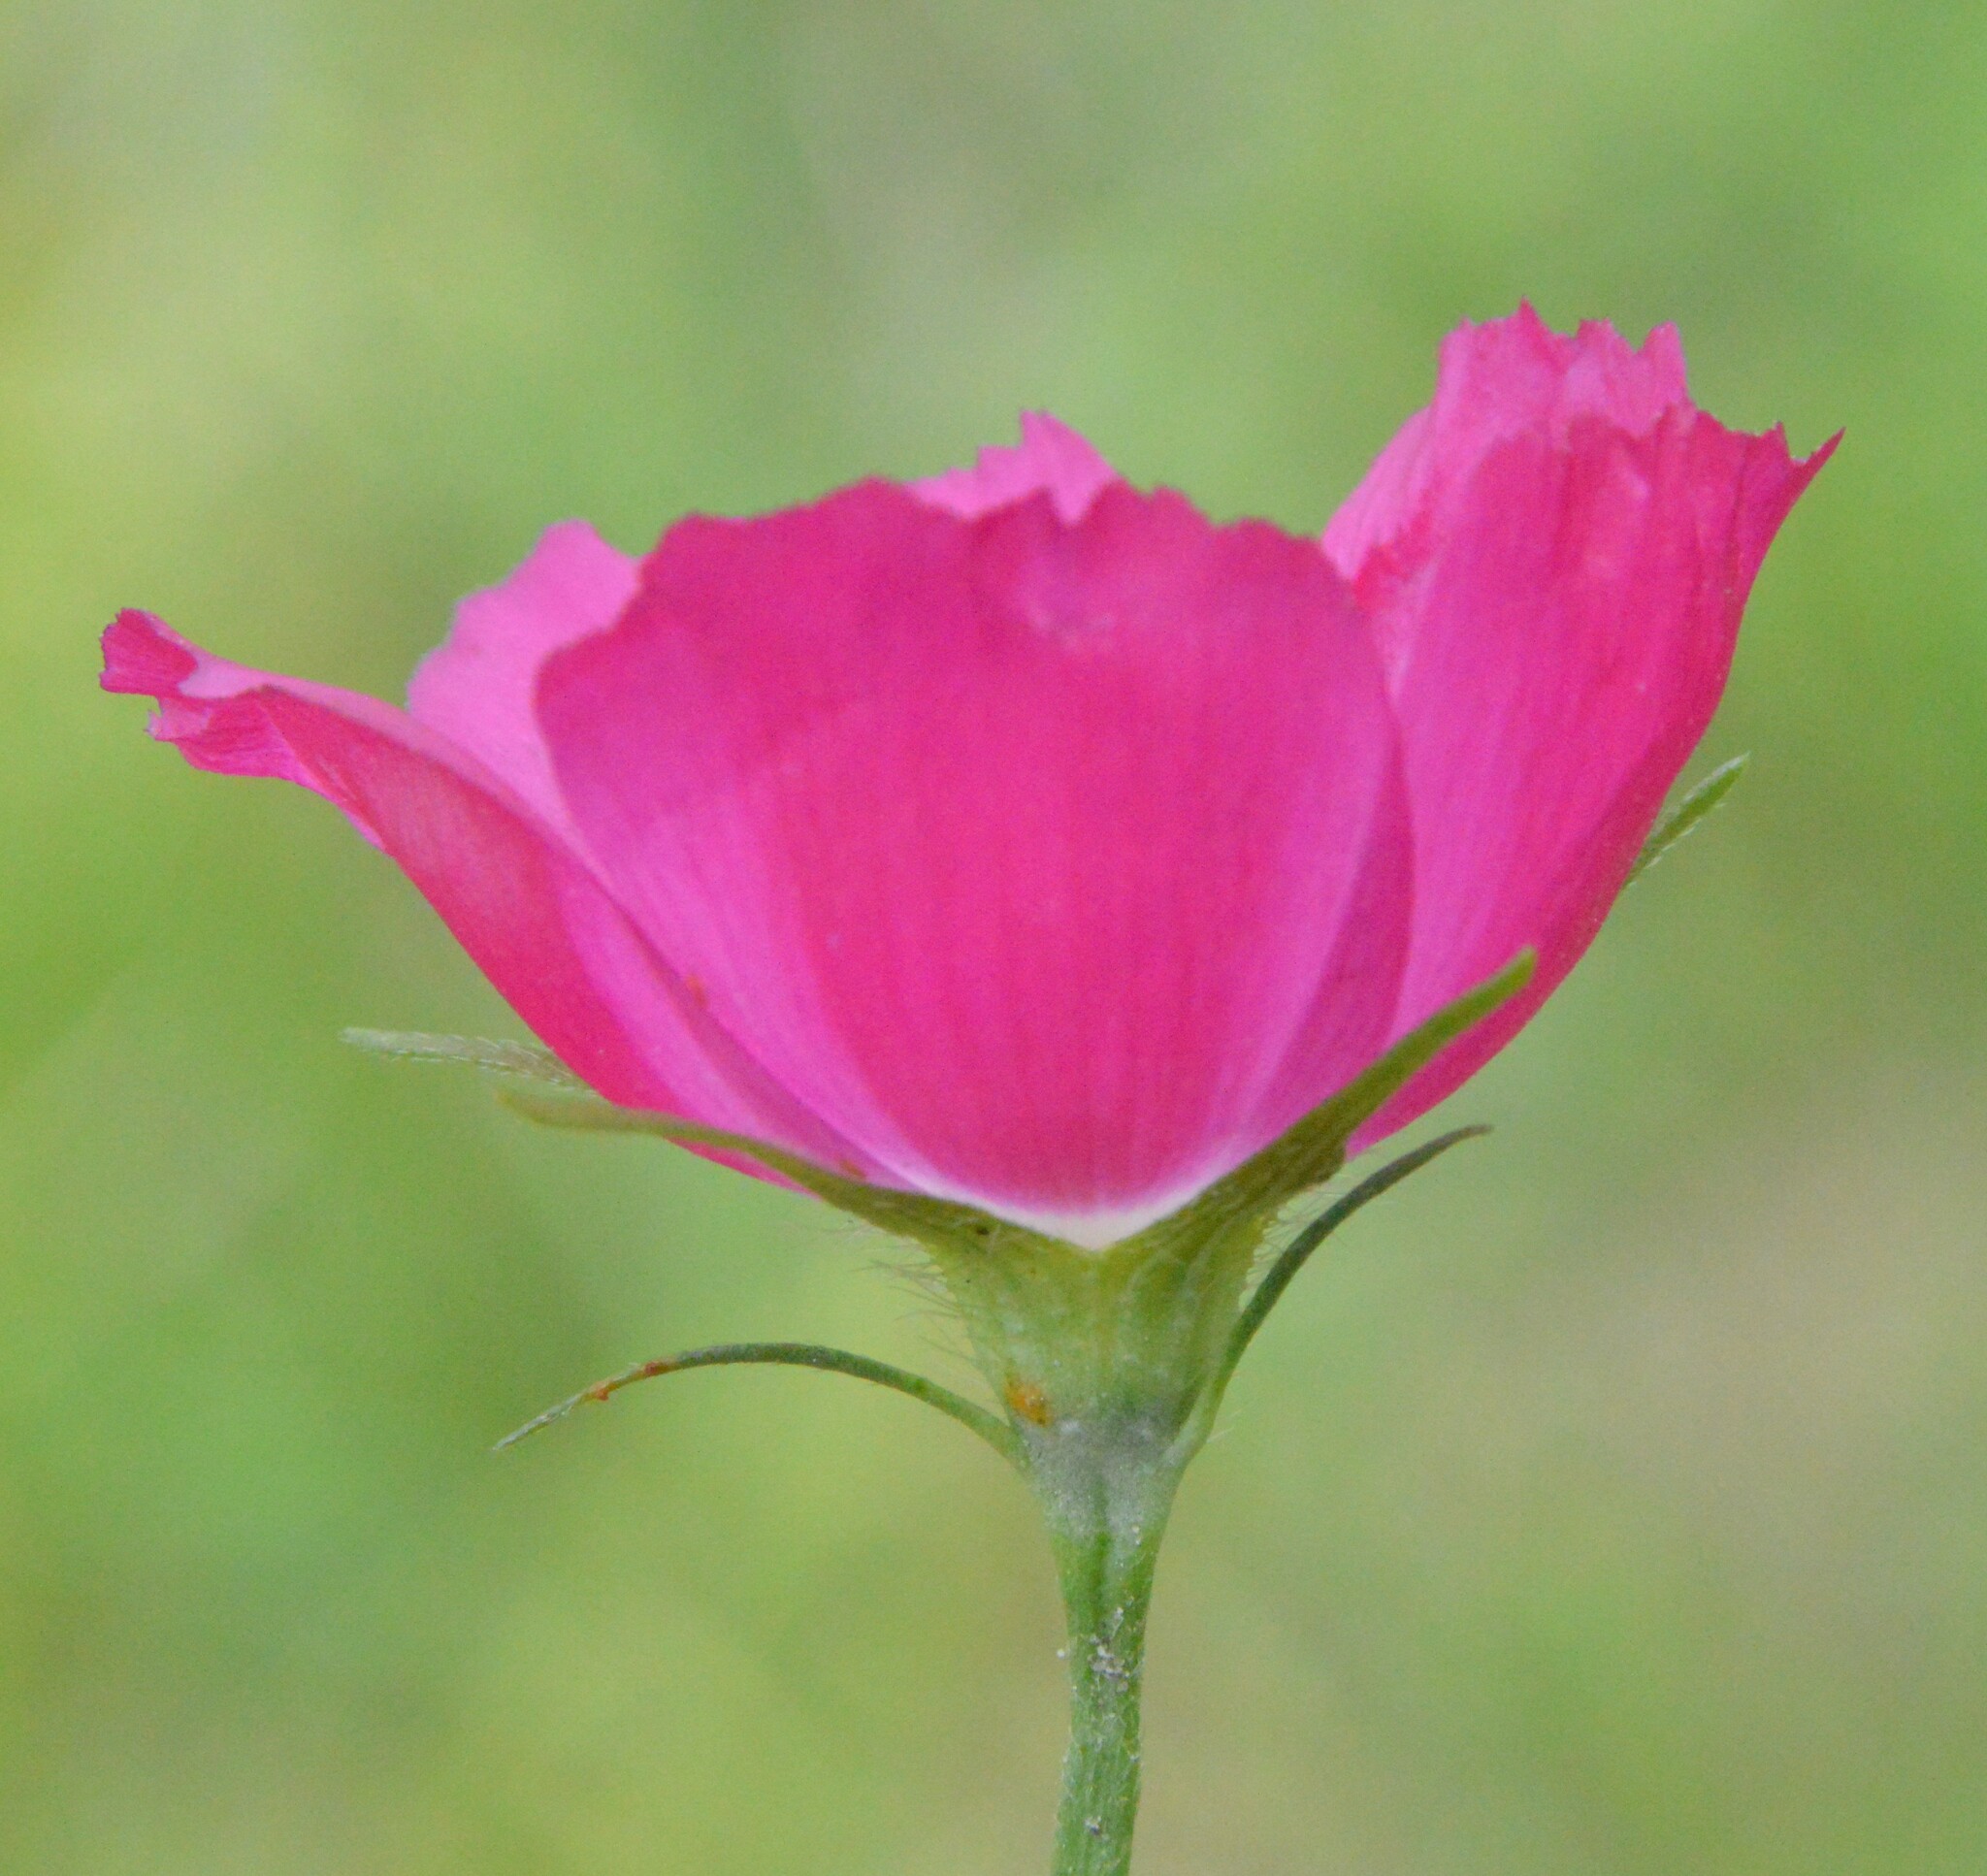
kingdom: Plantae
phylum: Tracheophyta
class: Magnoliopsida
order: Malvales
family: Malvaceae
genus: Callirhoe
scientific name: Callirhoe involucrata
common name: Purple poppy-mallow
